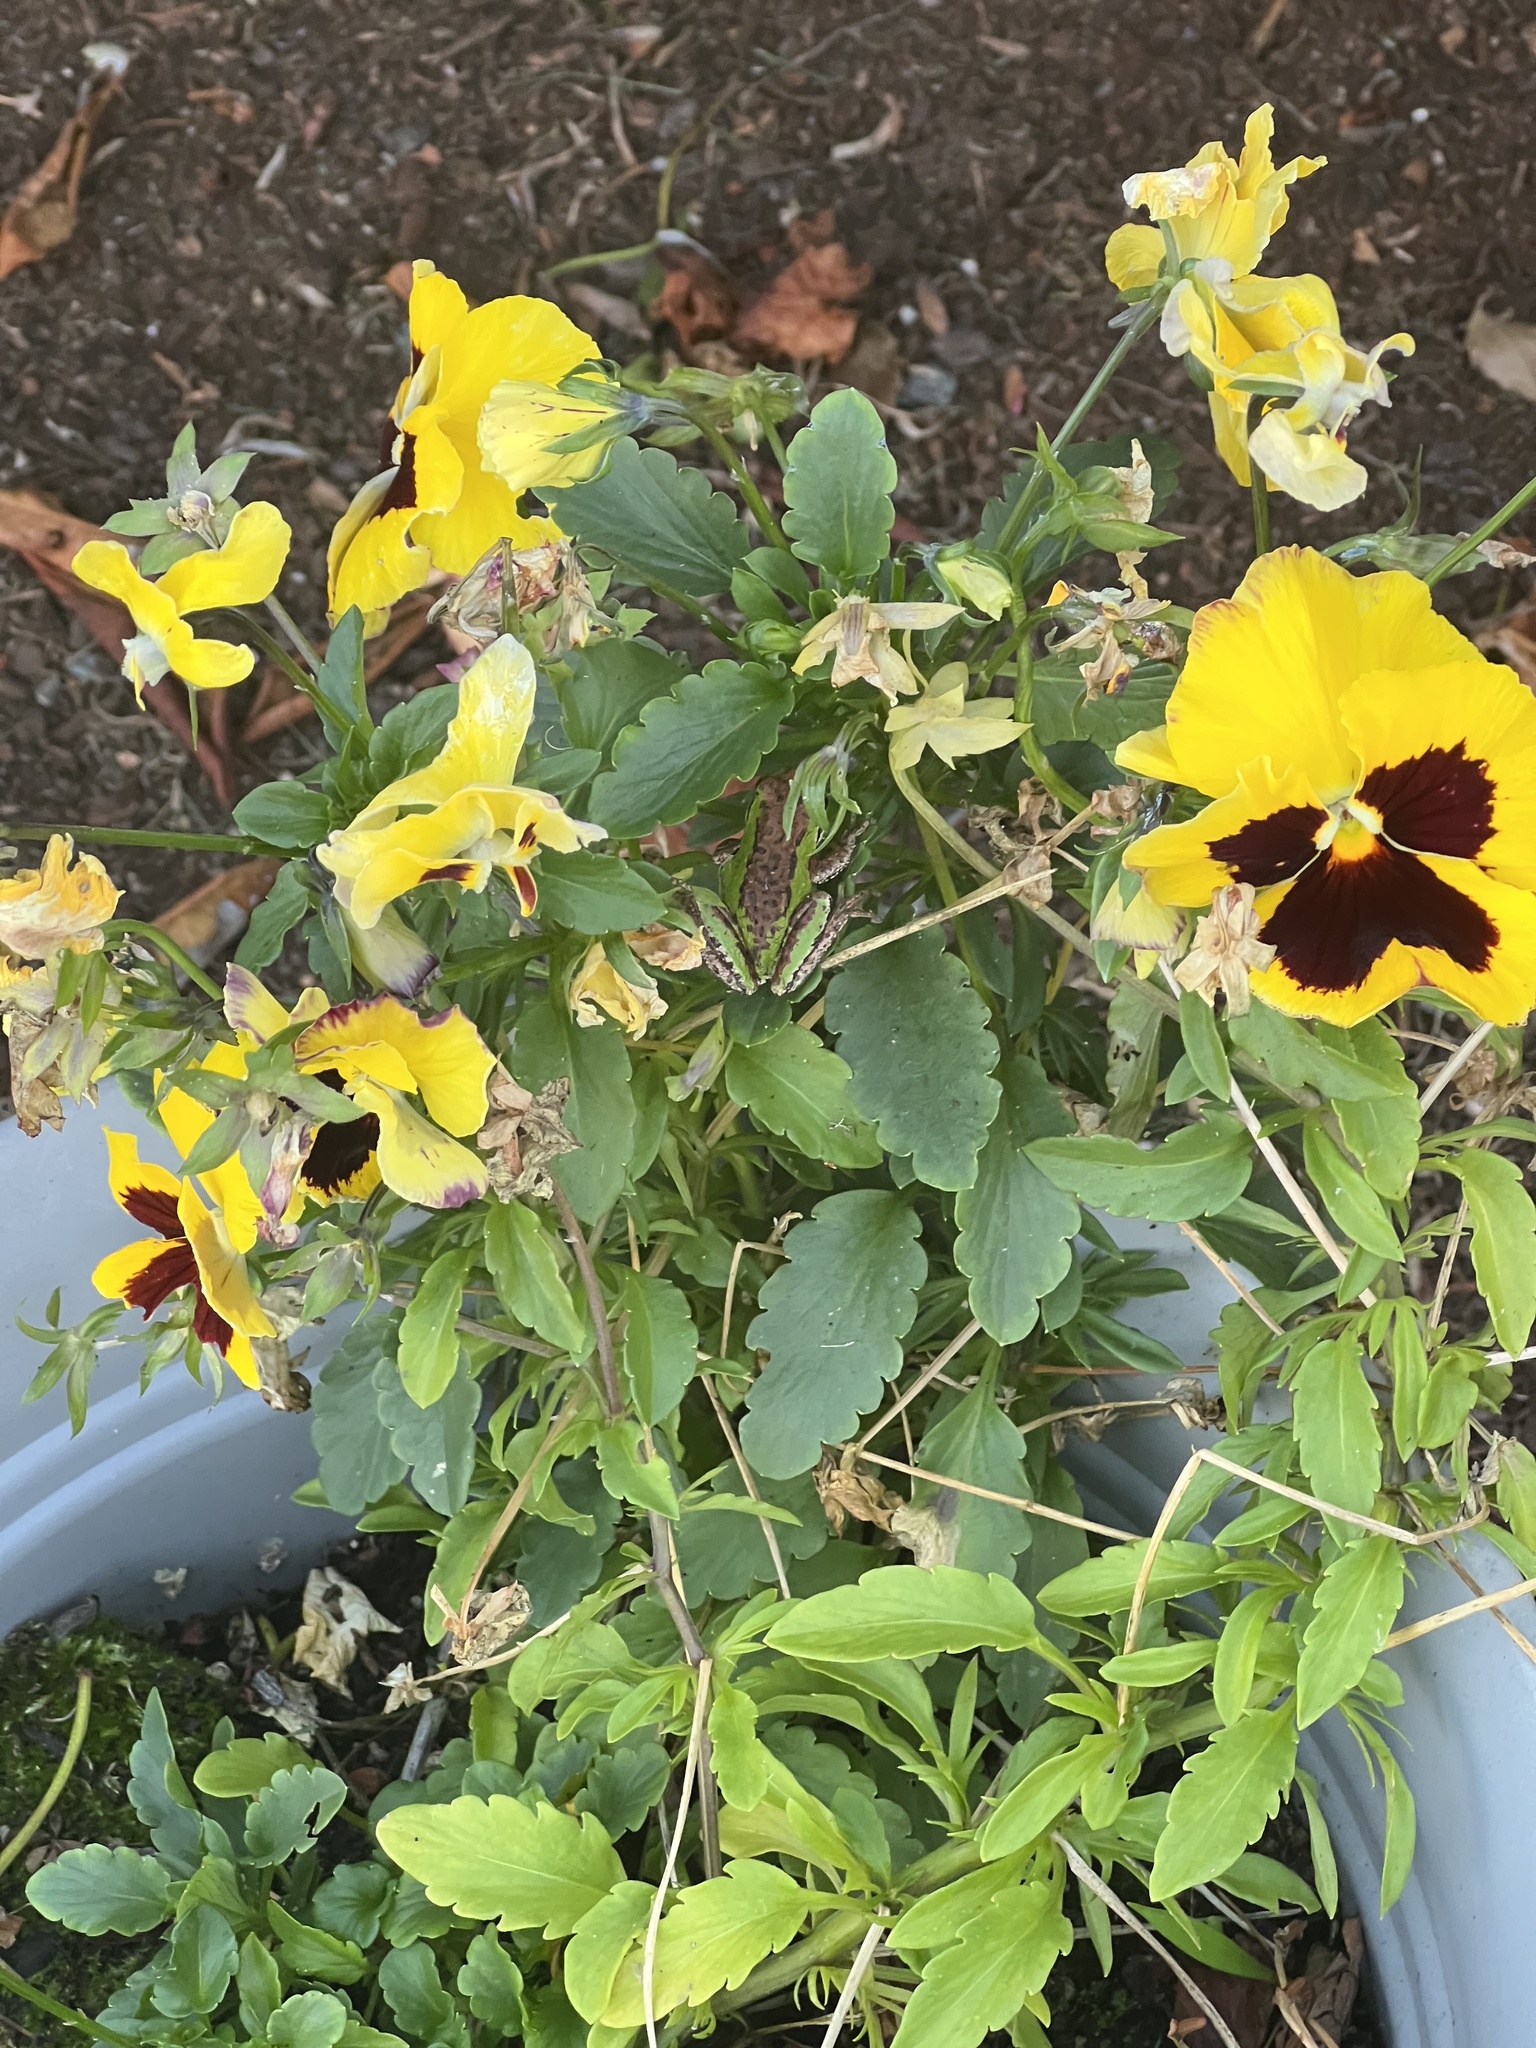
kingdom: Animalia
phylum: Chordata
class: Amphibia
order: Anura
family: Hylidae
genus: Pseudacris
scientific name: Pseudacris regilla
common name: Pacific chorus frog
